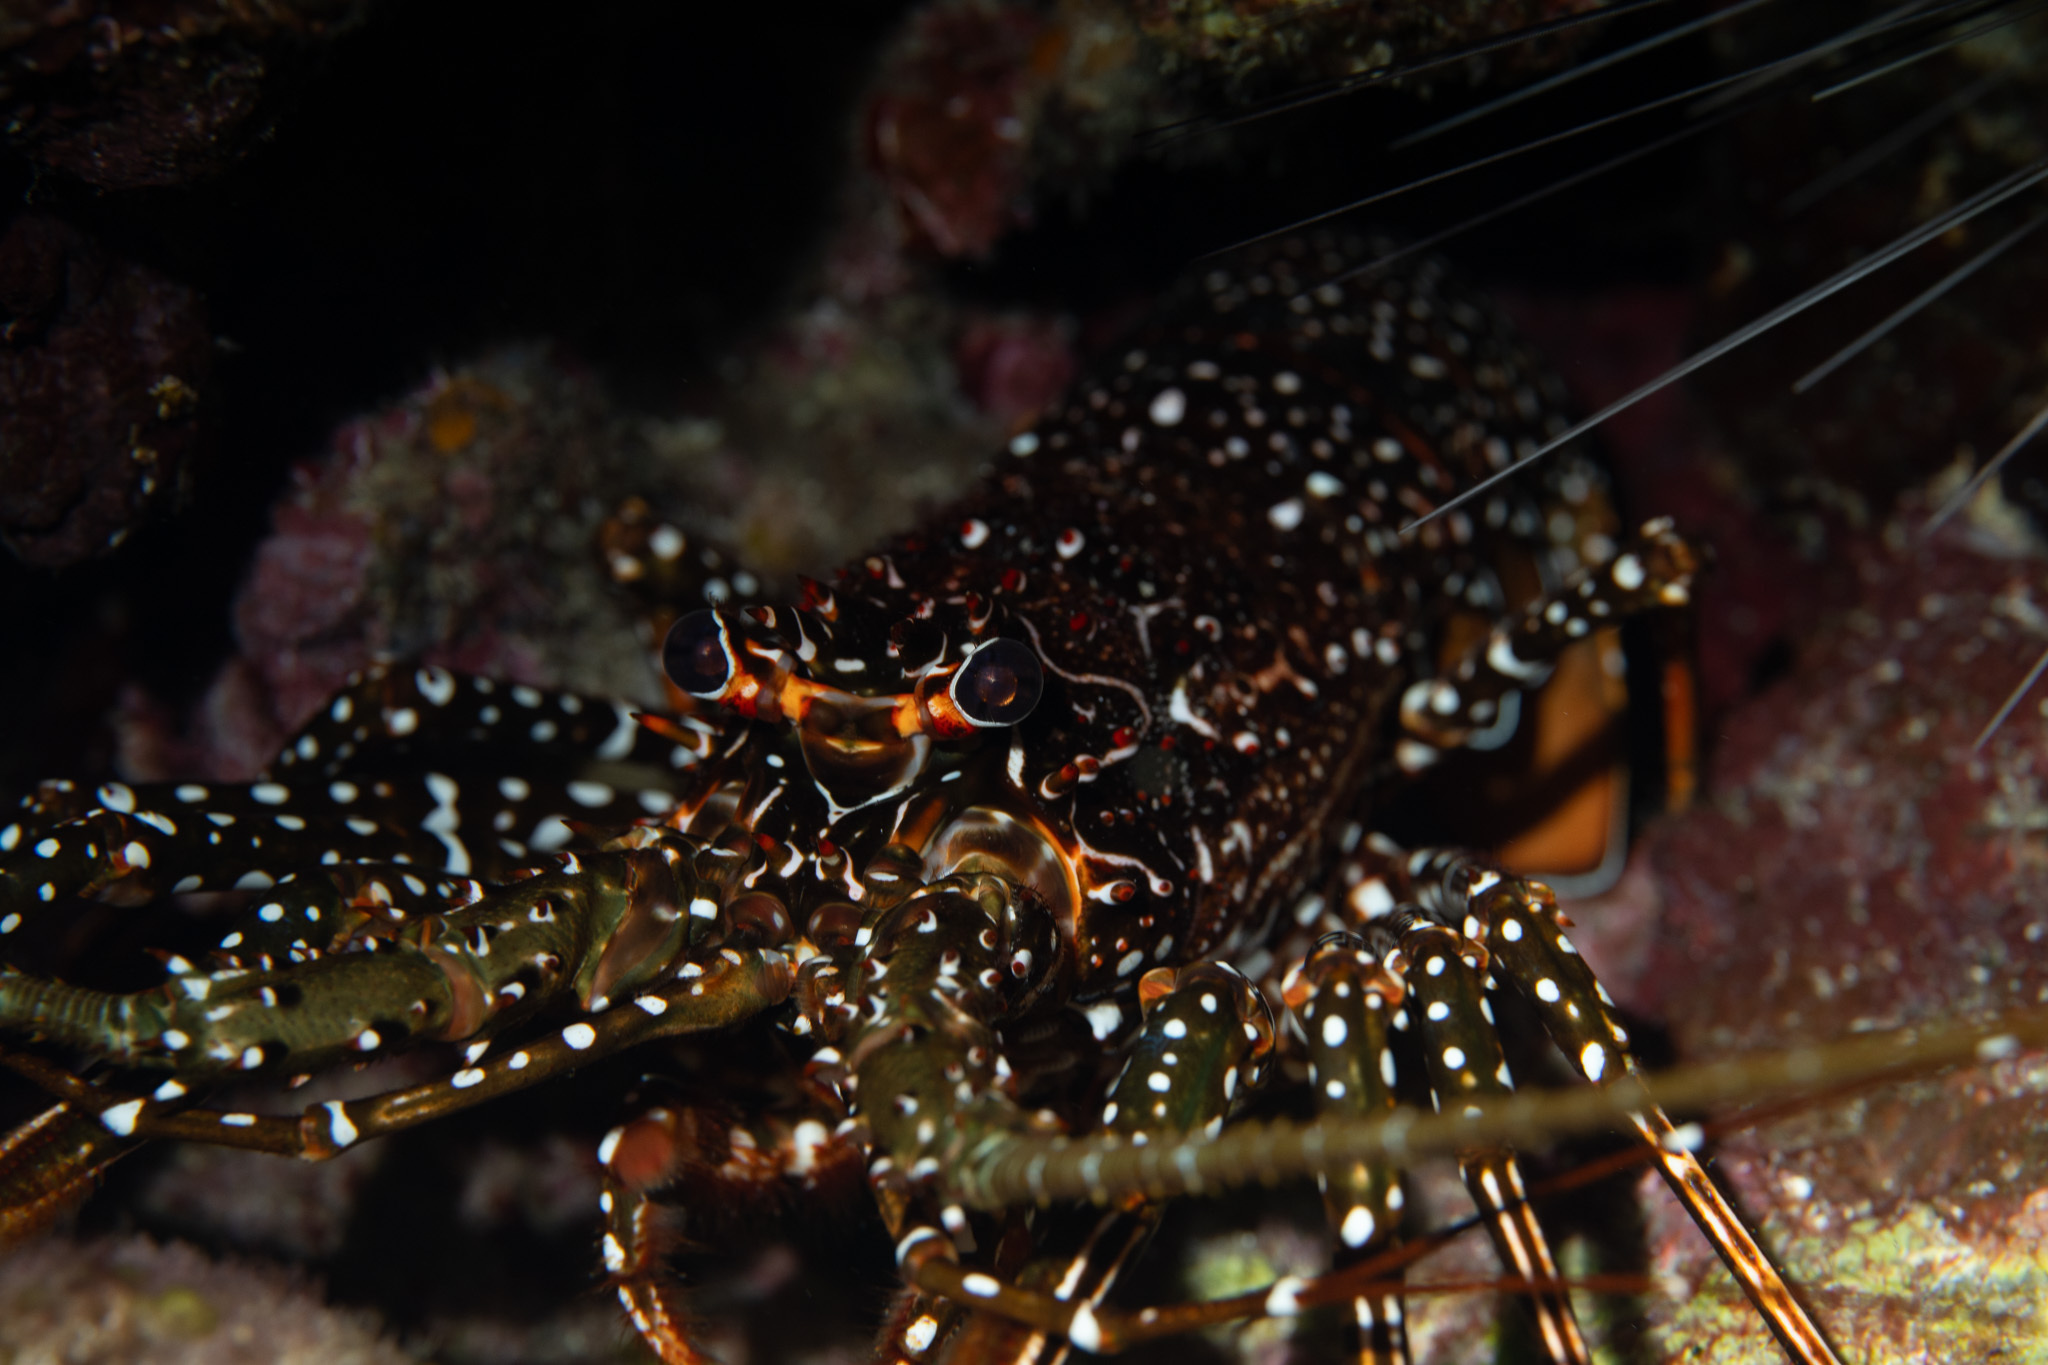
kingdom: Animalia
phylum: Arthropoda
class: Malacostraca
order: Decapoda
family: Palinuridae
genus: Panulirus
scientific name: Panulirus guttatus
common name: Spotted spiny lobster
